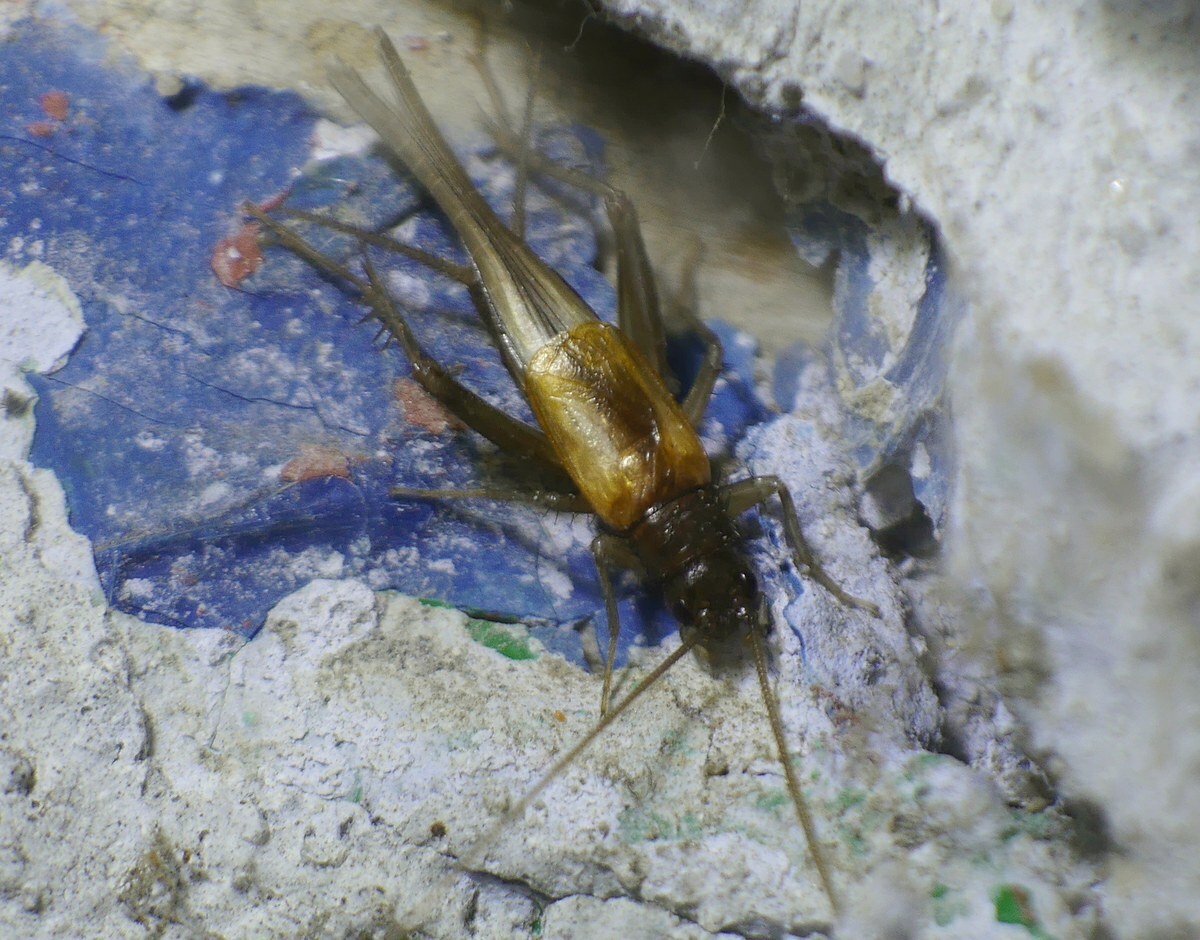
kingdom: Animalia
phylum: Arthropoda
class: Insecta
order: Orthoptera
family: Trigonidiidae
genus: Stenonemobius
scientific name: Stenonemobius bicolor
